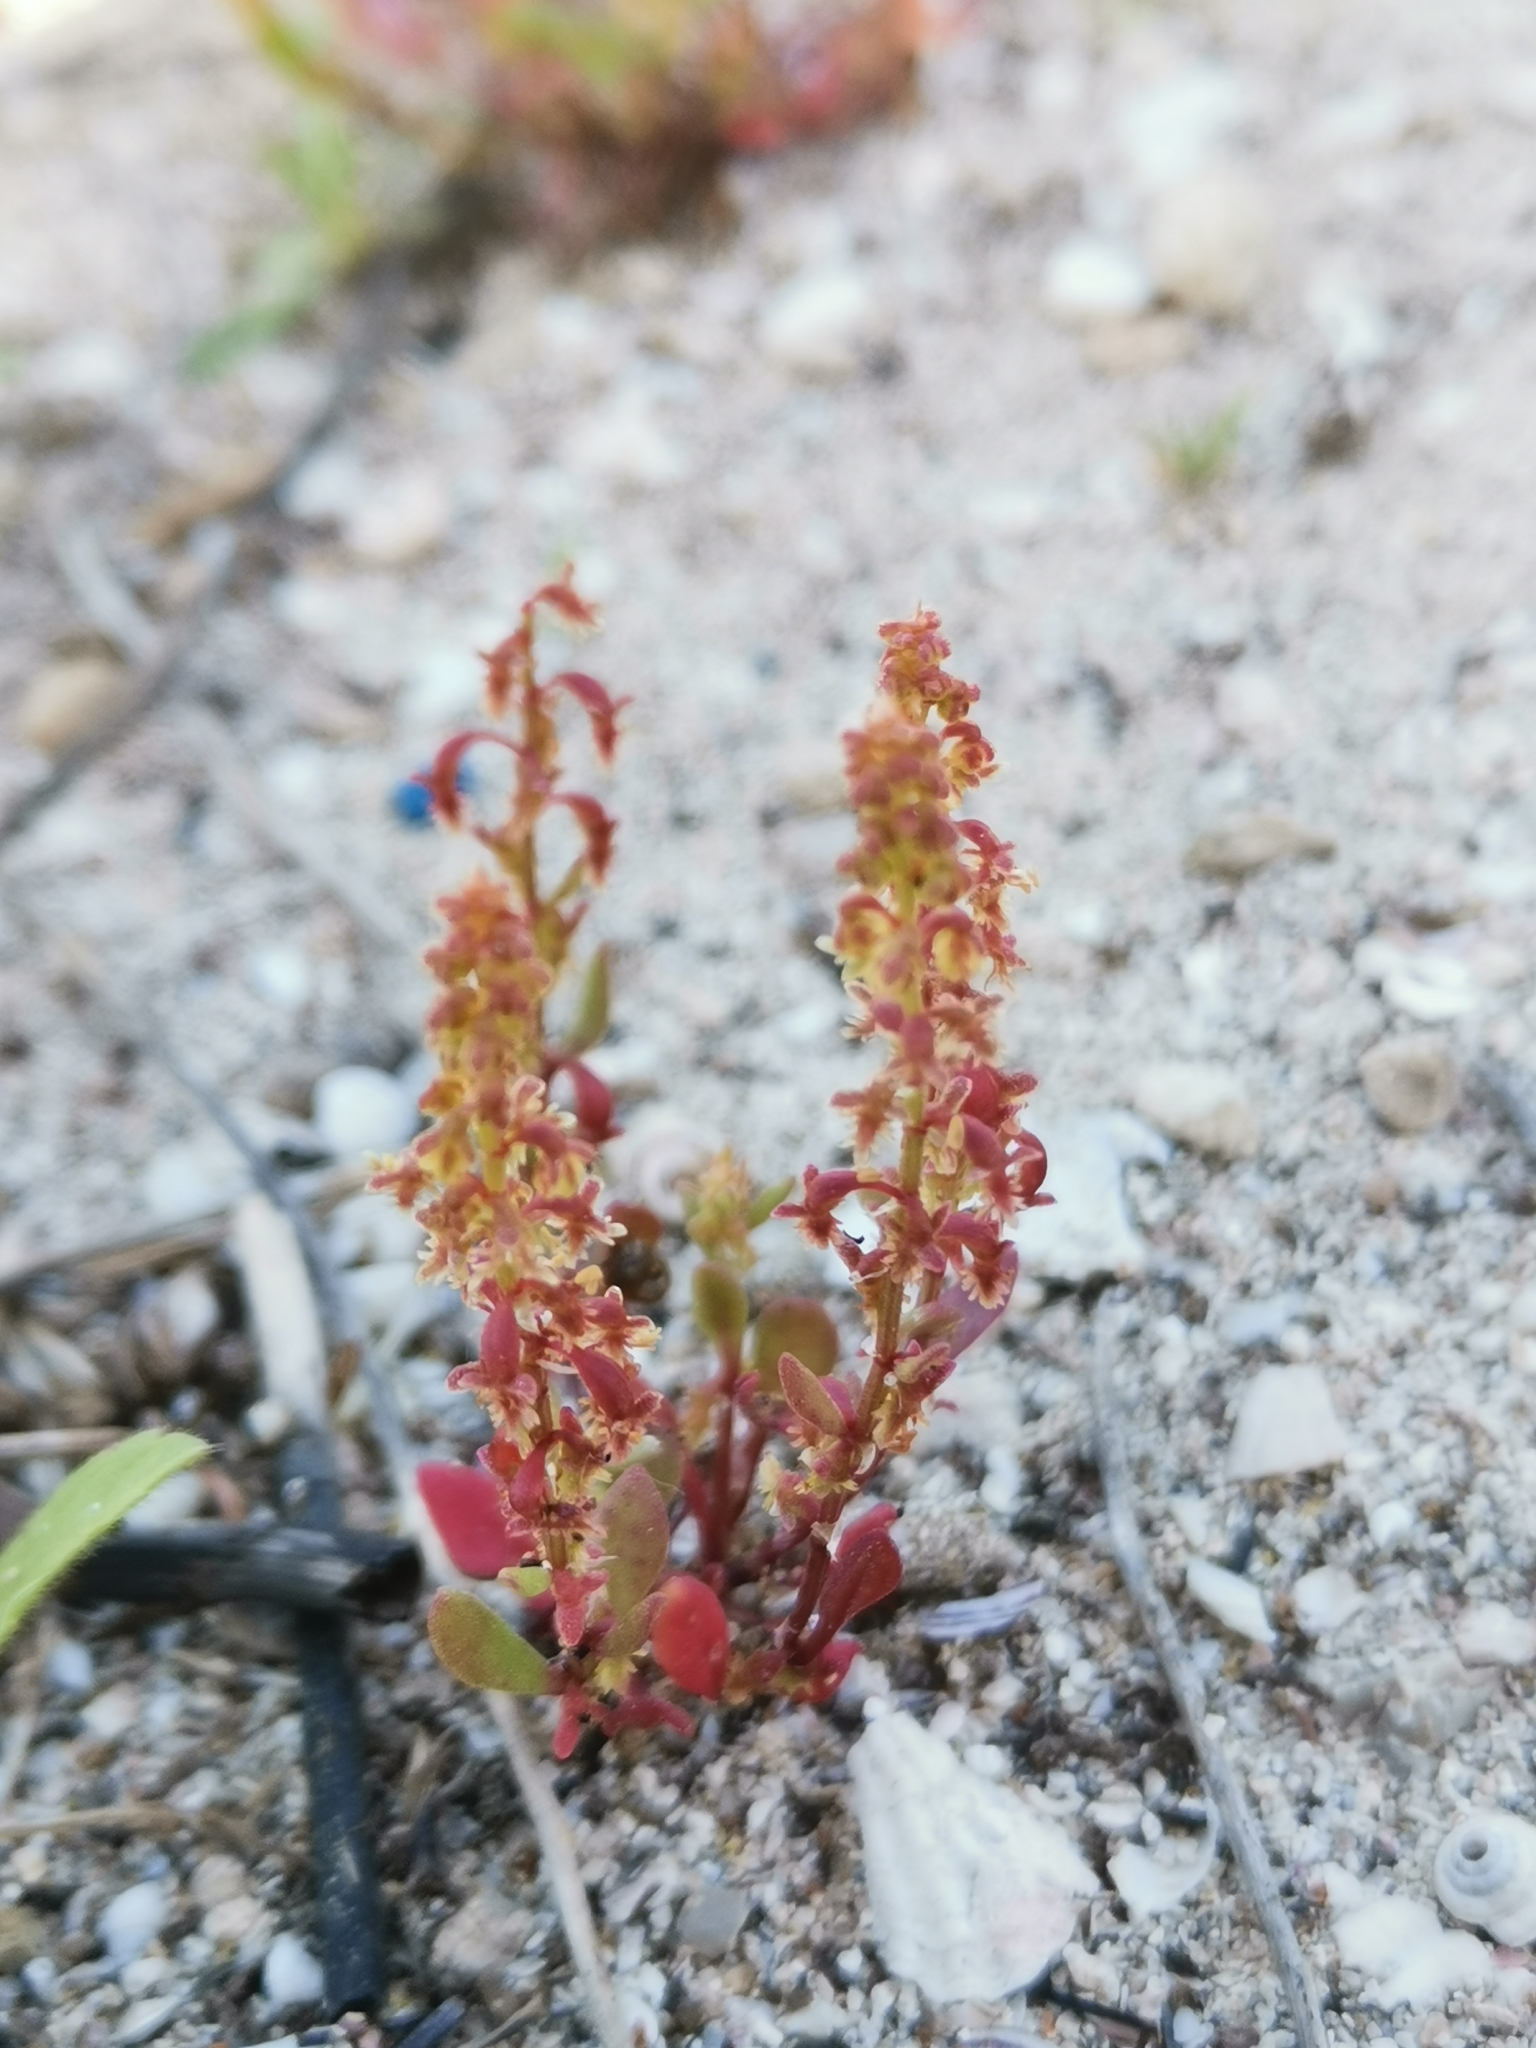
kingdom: Plantae
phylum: Tracheophyta
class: Magnoliopsida
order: Caryophyllales
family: Polygonaceae
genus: Rumex
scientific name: Rumex bucephalophorus
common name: Red dock
